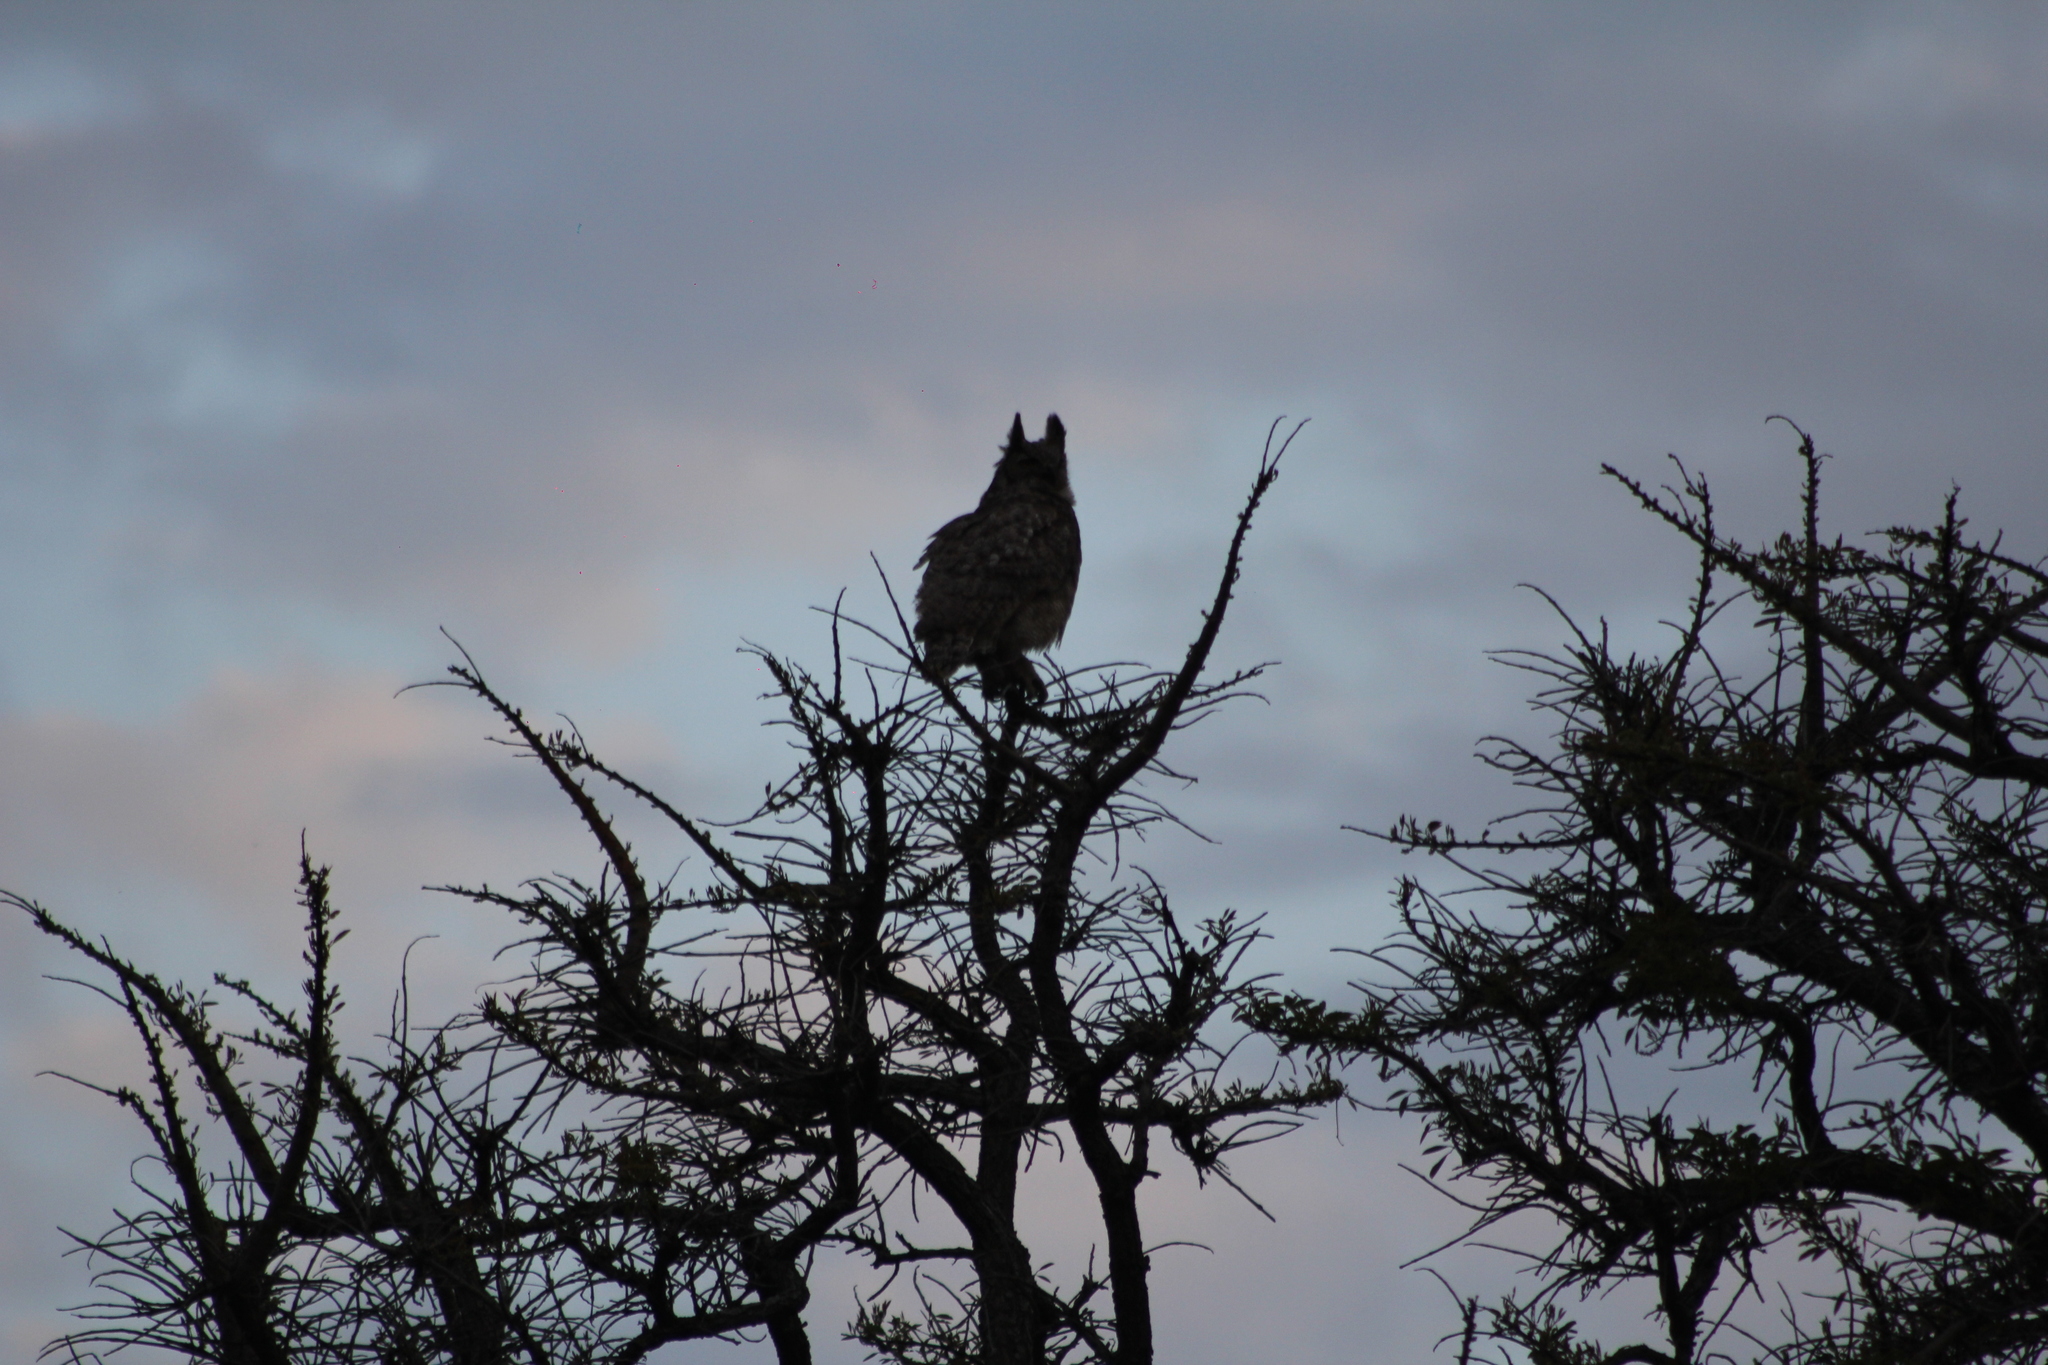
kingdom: Animalia
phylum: Chordata
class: Aves
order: Strigiformes
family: Strigidae
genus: Bubo
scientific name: Bubo virginianus
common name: Great horned owl
